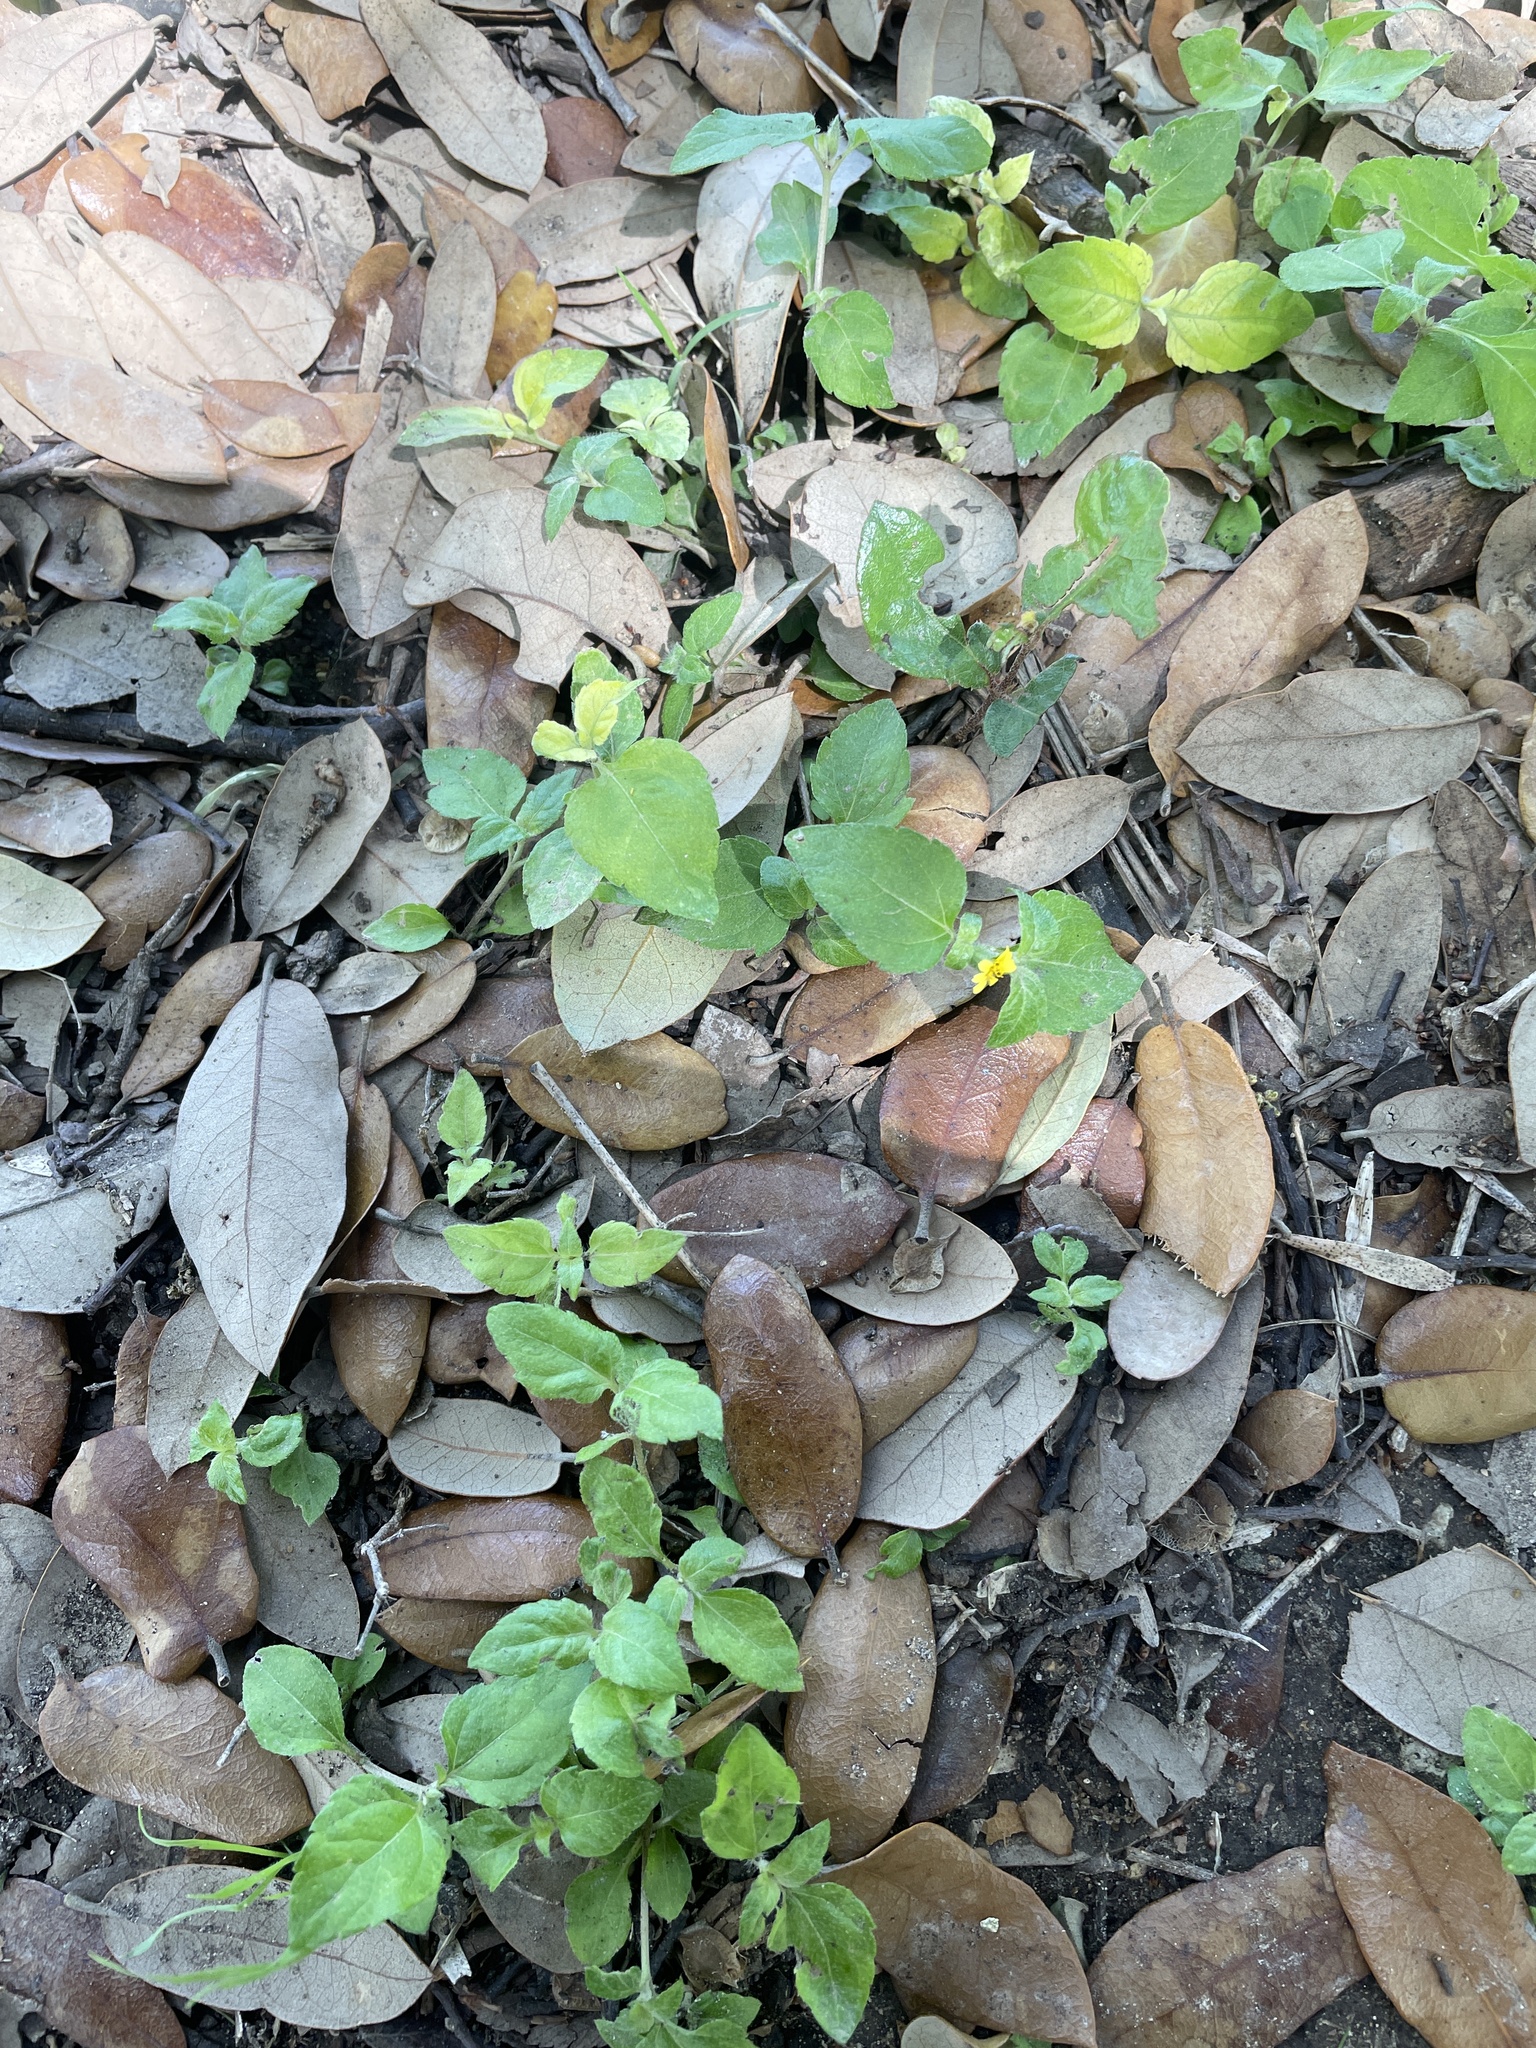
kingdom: Plantae
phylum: Tracheophyta
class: Magnoliopsida
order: Asterales
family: Asteraceae
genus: Calyptocarpus
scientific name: Calyptocarpus vialis
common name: Straggler daisy
